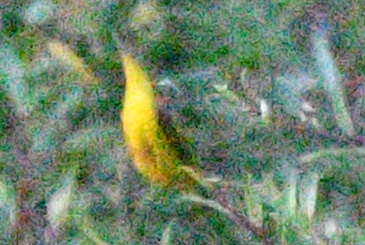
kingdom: Animalia
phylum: Chordata
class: Aves
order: Passeriformes
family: Parulidae
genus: Cardellina
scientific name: Cardellina pusilla
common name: Wilson's warbler
